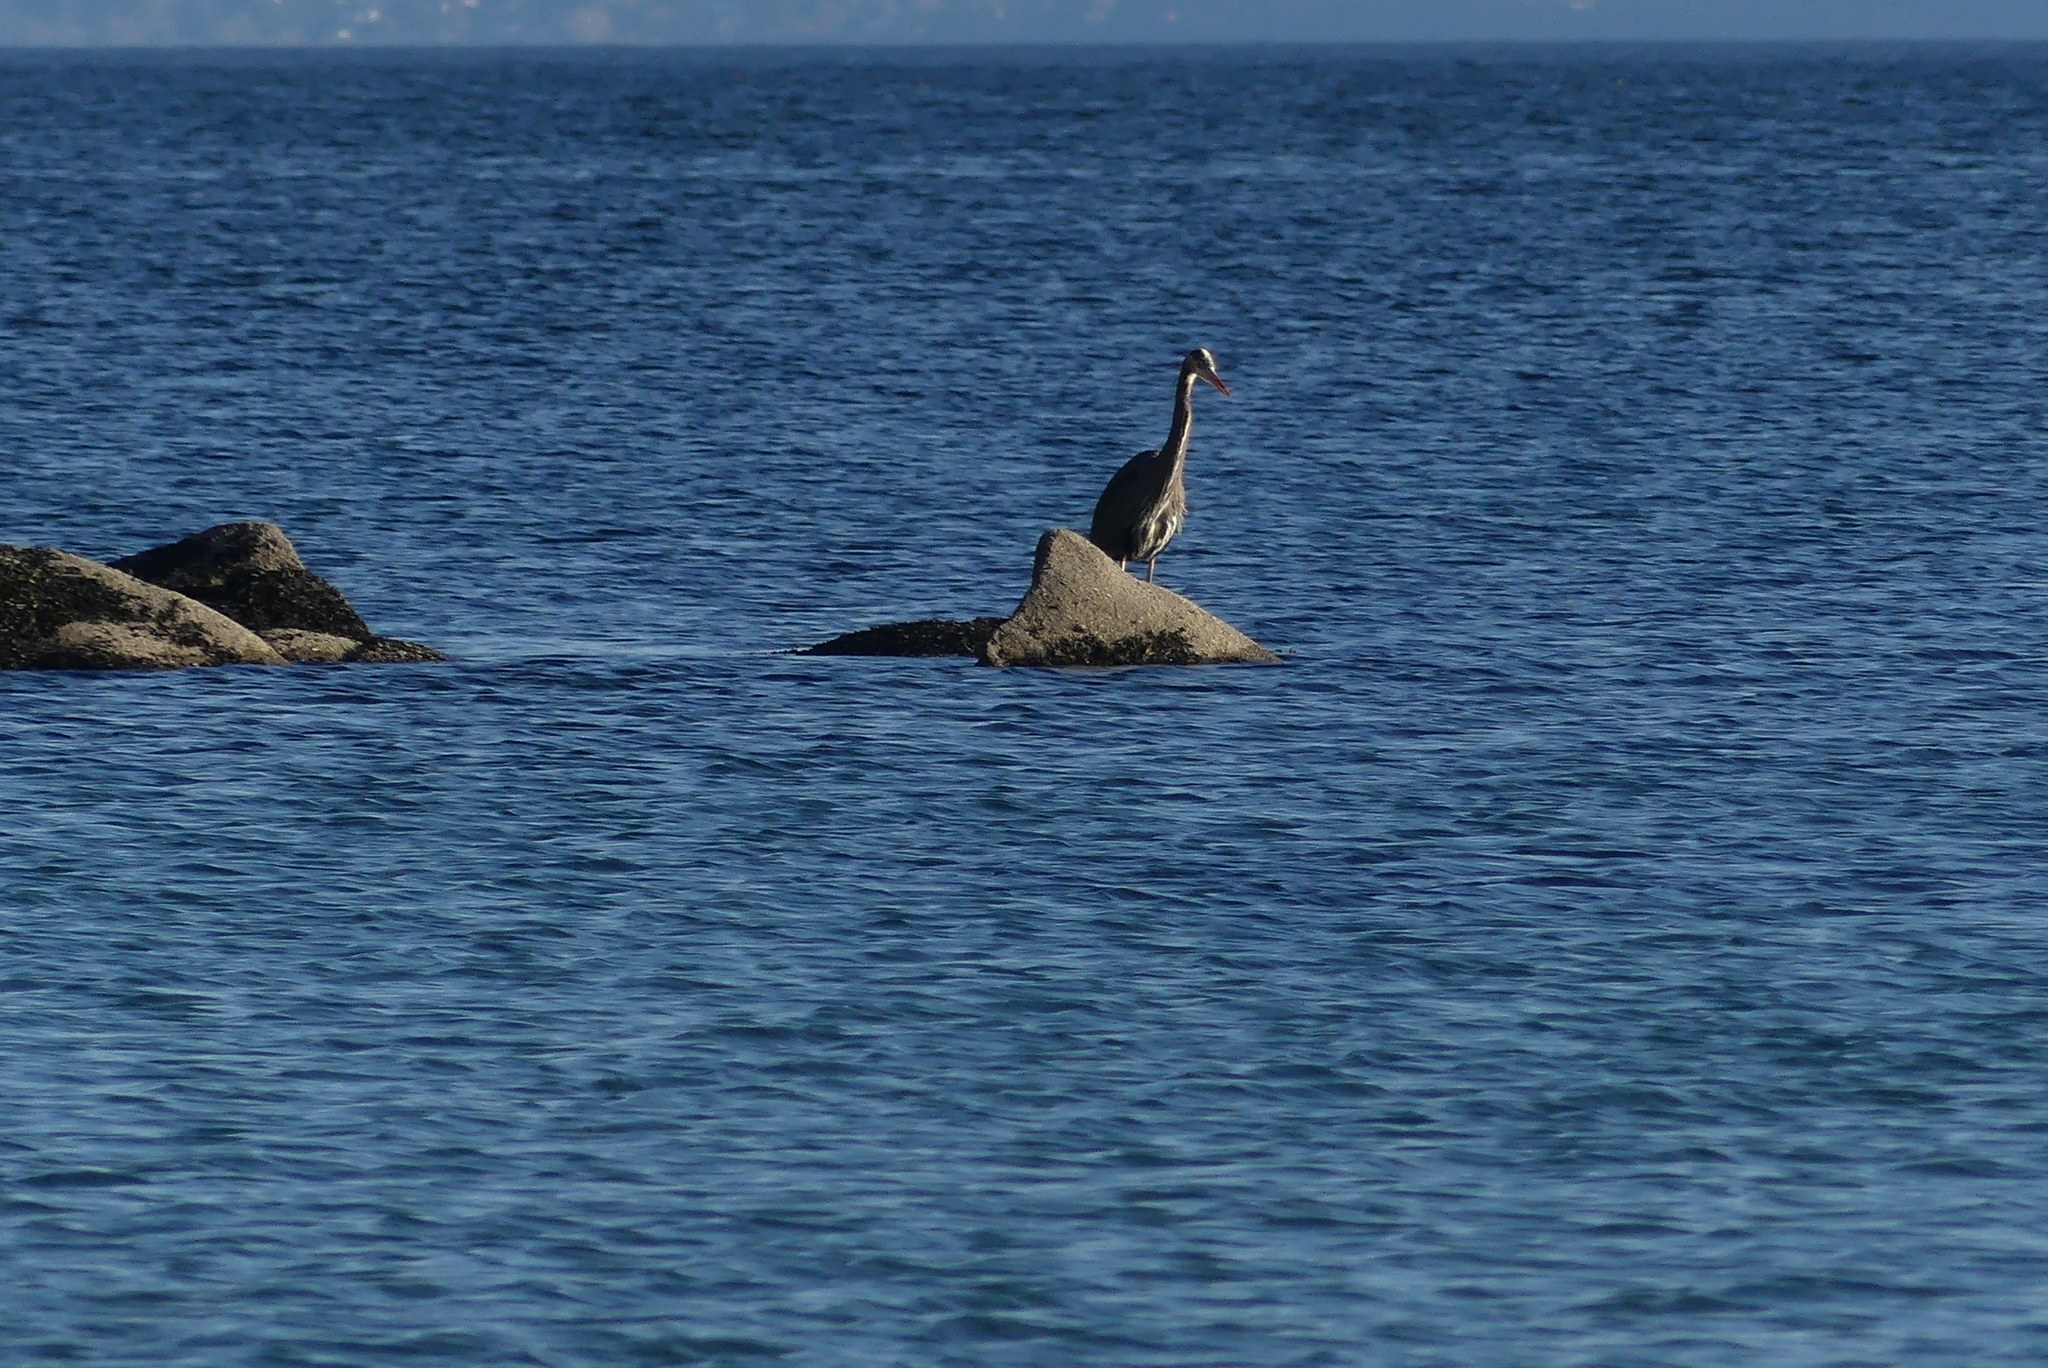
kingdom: Animalia
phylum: Chordata
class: Aves
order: Pelecaniformes
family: Ardeidae
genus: Ardea
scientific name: Ardea herodias
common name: Great blue heron
